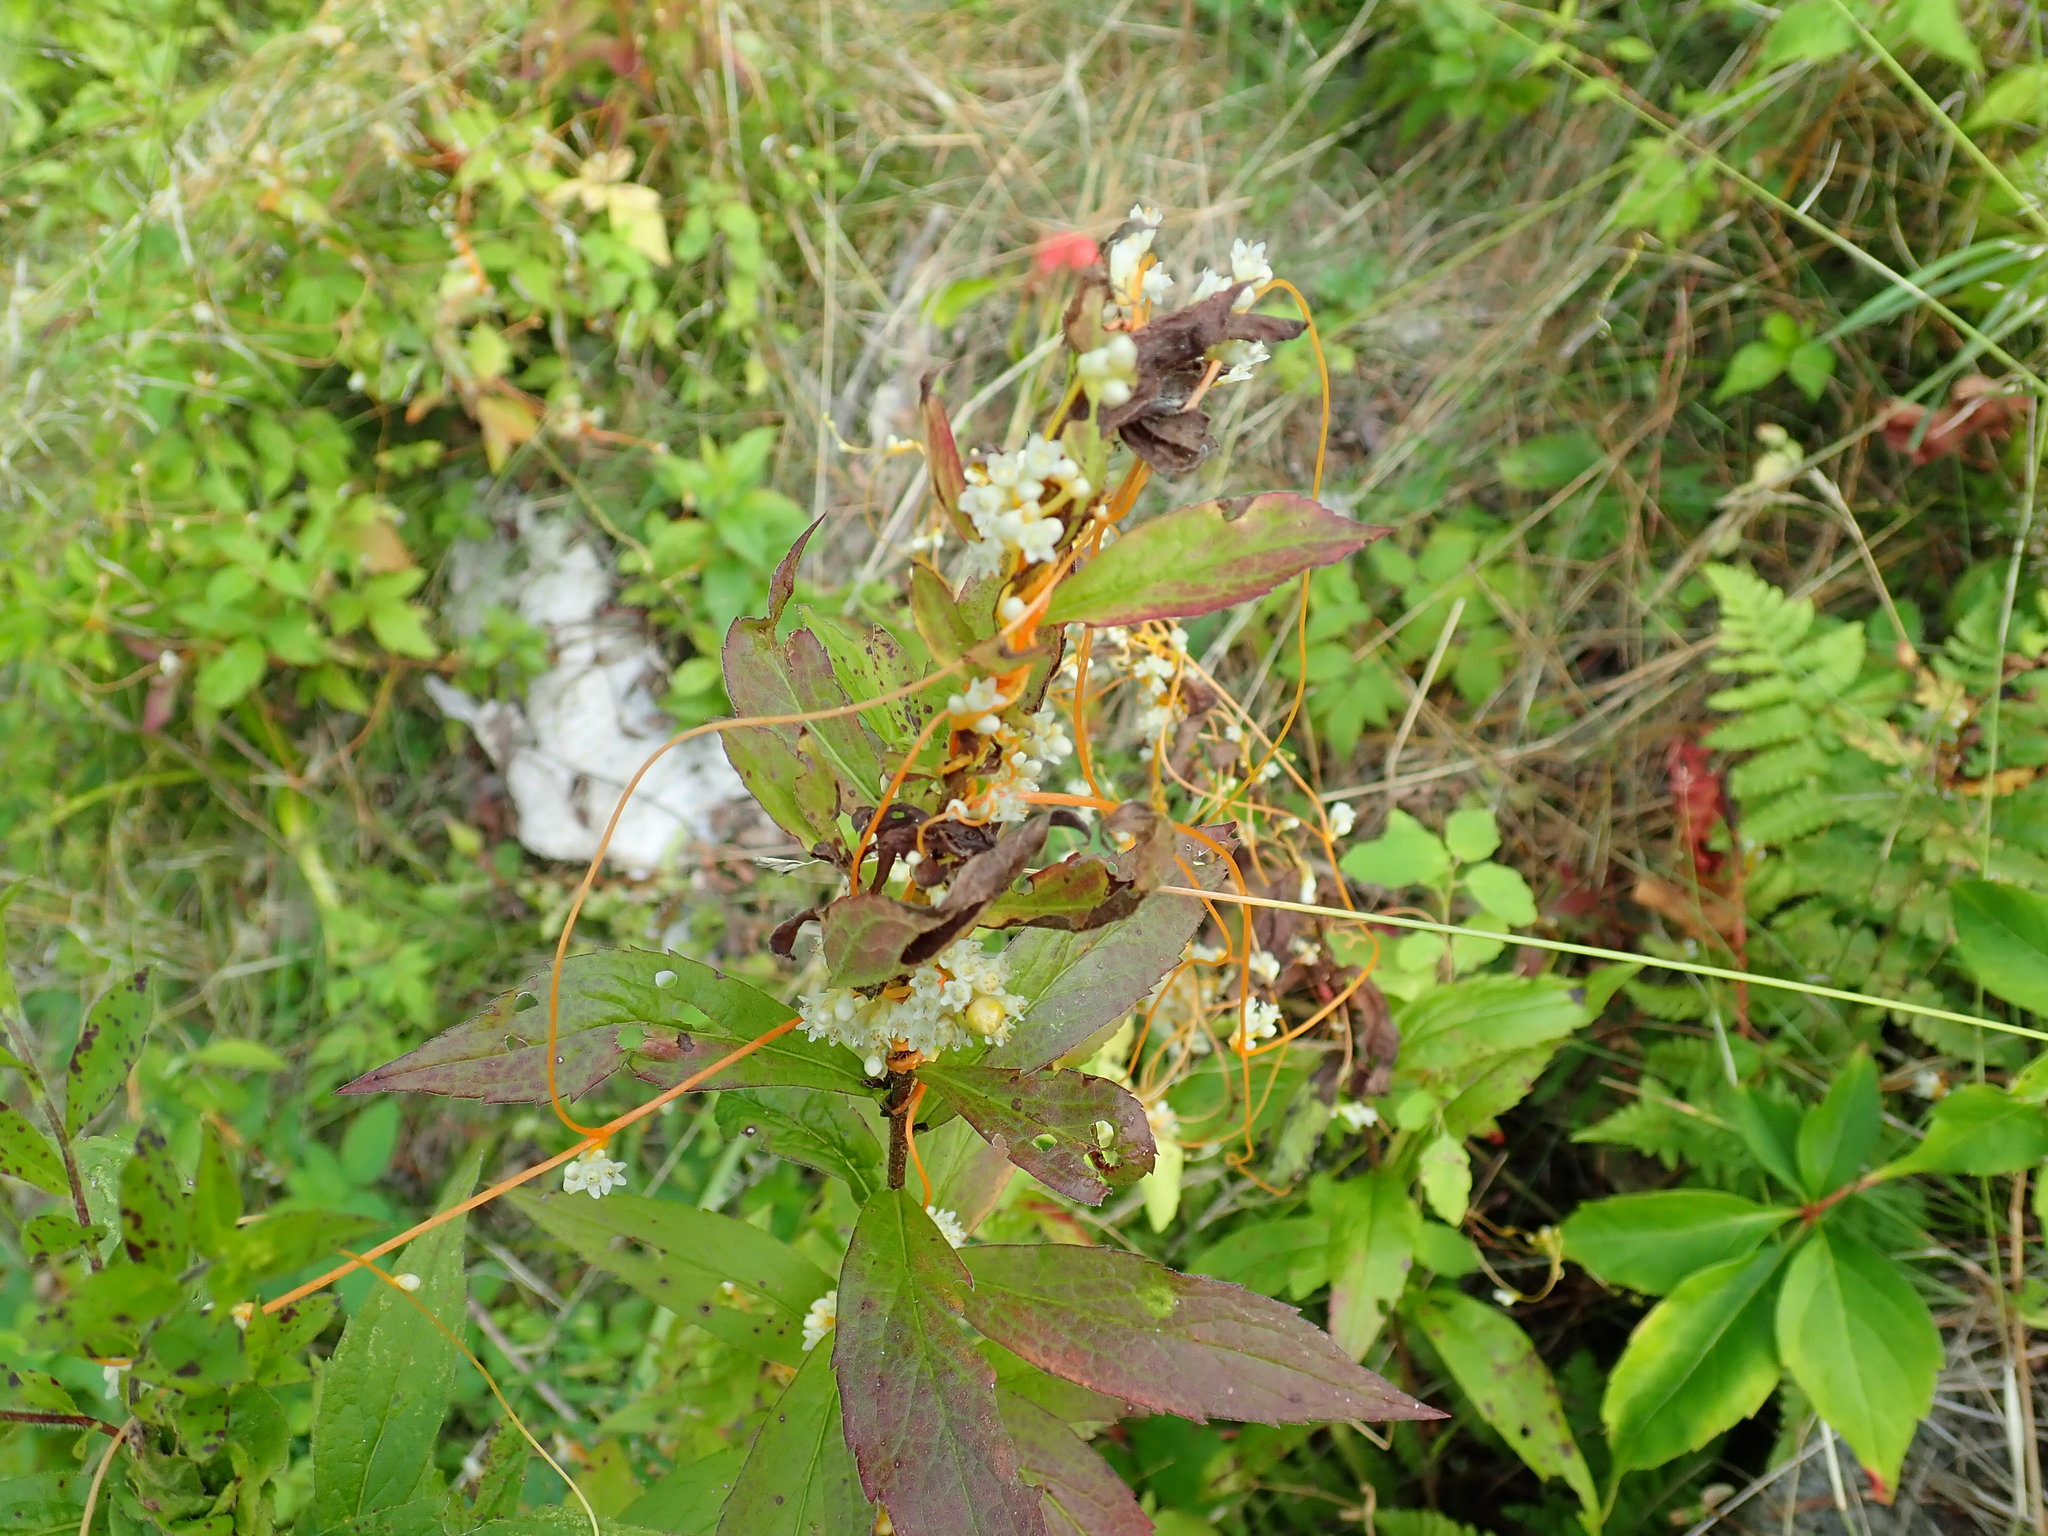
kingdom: Plantae
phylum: Tracheophyta
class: Magnoliopsida
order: Solanales
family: Convolvulaceae
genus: Cuscuta
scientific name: Cuscuta
